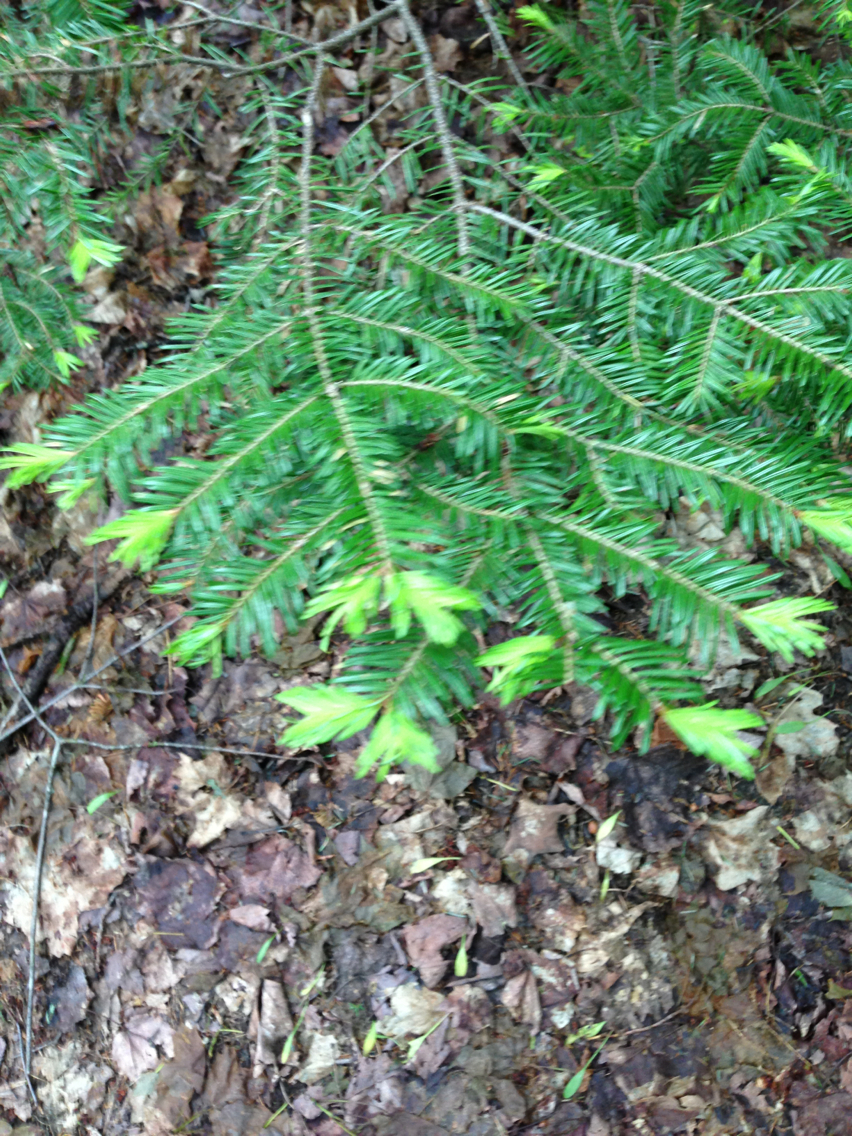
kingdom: Plantae
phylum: Tracheophyta
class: Pinopsida
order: Pinales
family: Pinaceae
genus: Abies
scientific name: Abies balsamea
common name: Balsam fir
